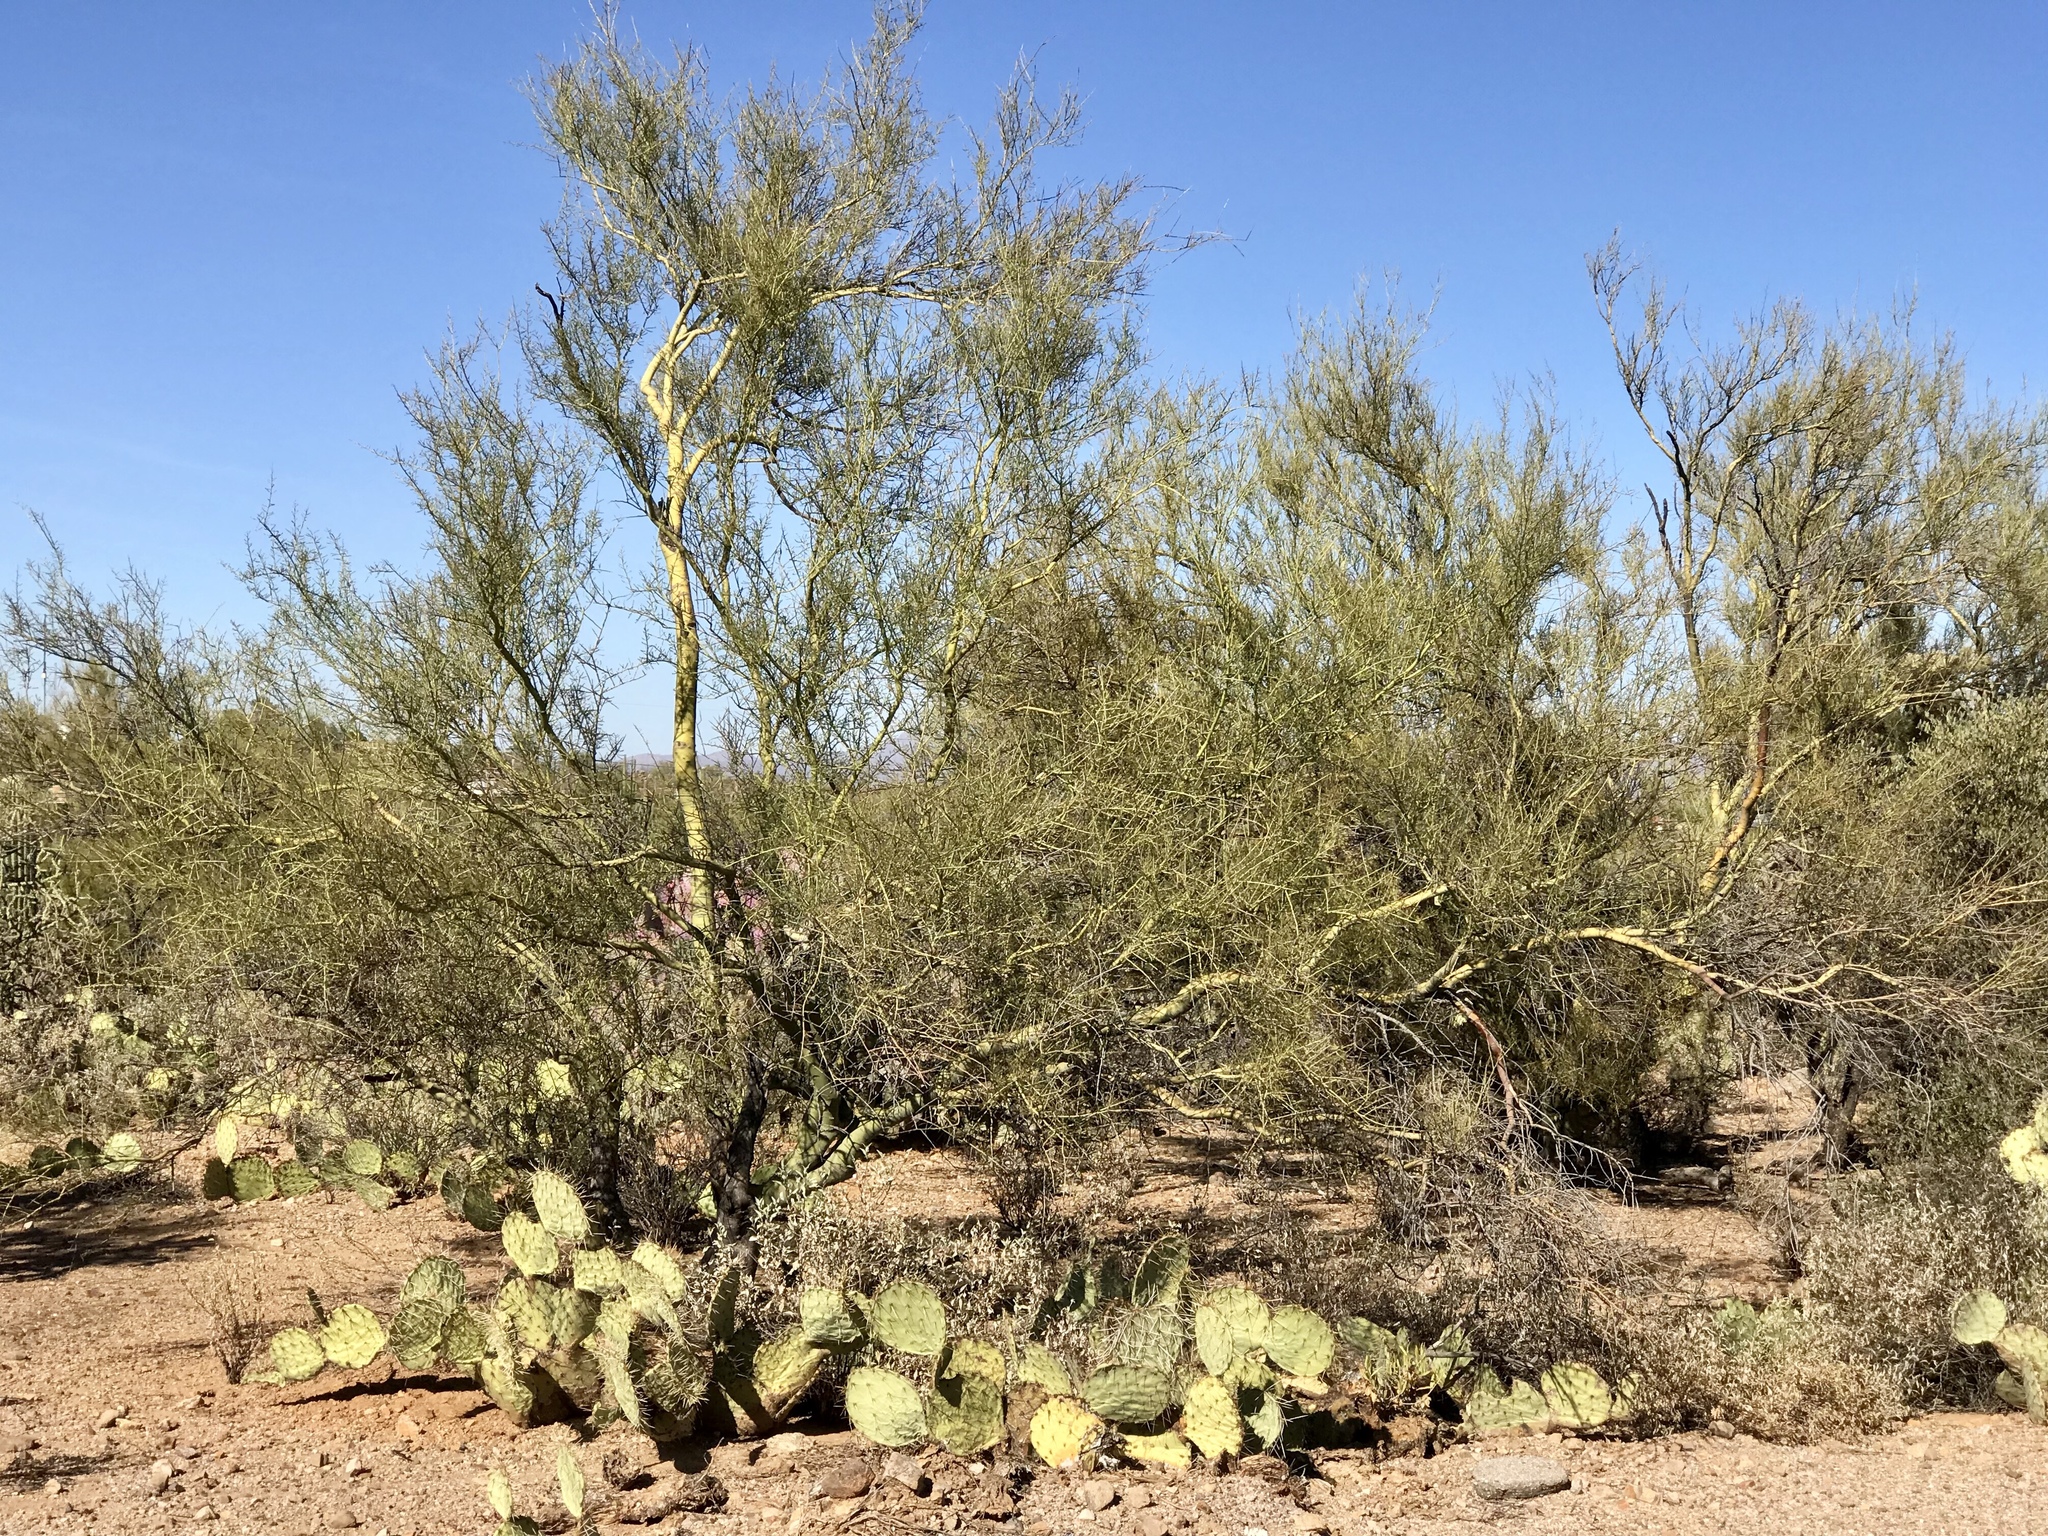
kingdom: Plantae
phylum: Tracheophyta
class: Magnoliopsida
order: Fabales
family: Fabaceae
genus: Parkinsonia
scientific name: Parkinsonia microphylla
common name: Yellow paloverde
